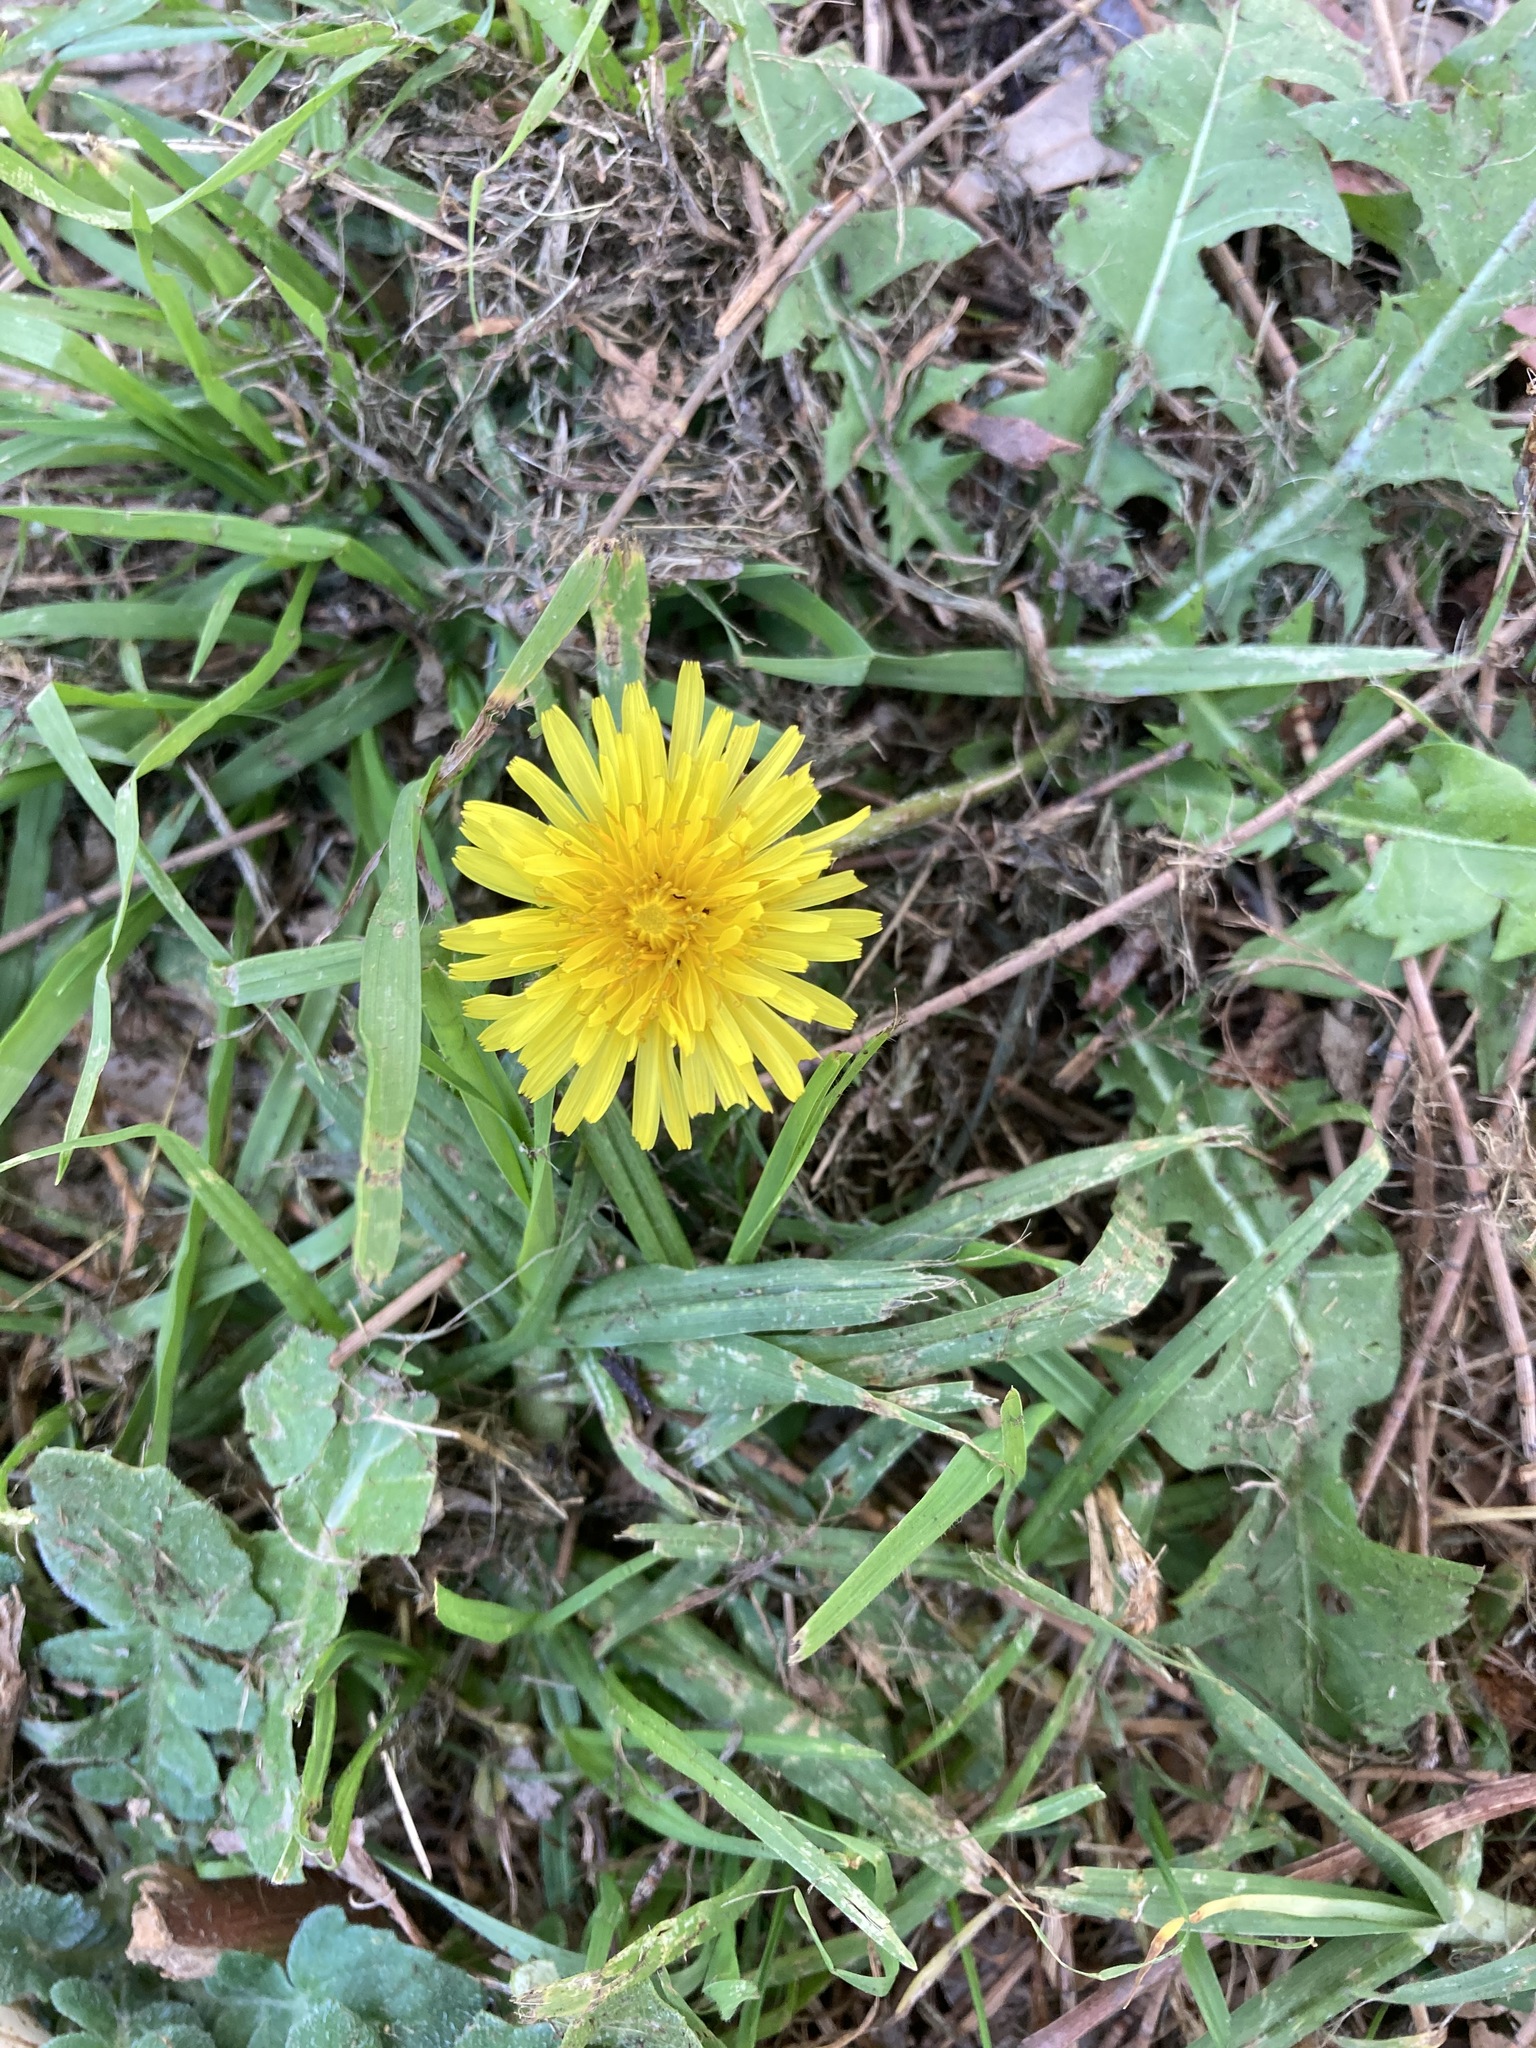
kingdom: Plantae
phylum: Tracheophyta
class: Magnoliopsida
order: Asterales
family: Asteraceae
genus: Taraxacum
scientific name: Taraxacum officinale
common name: Common dandelion
